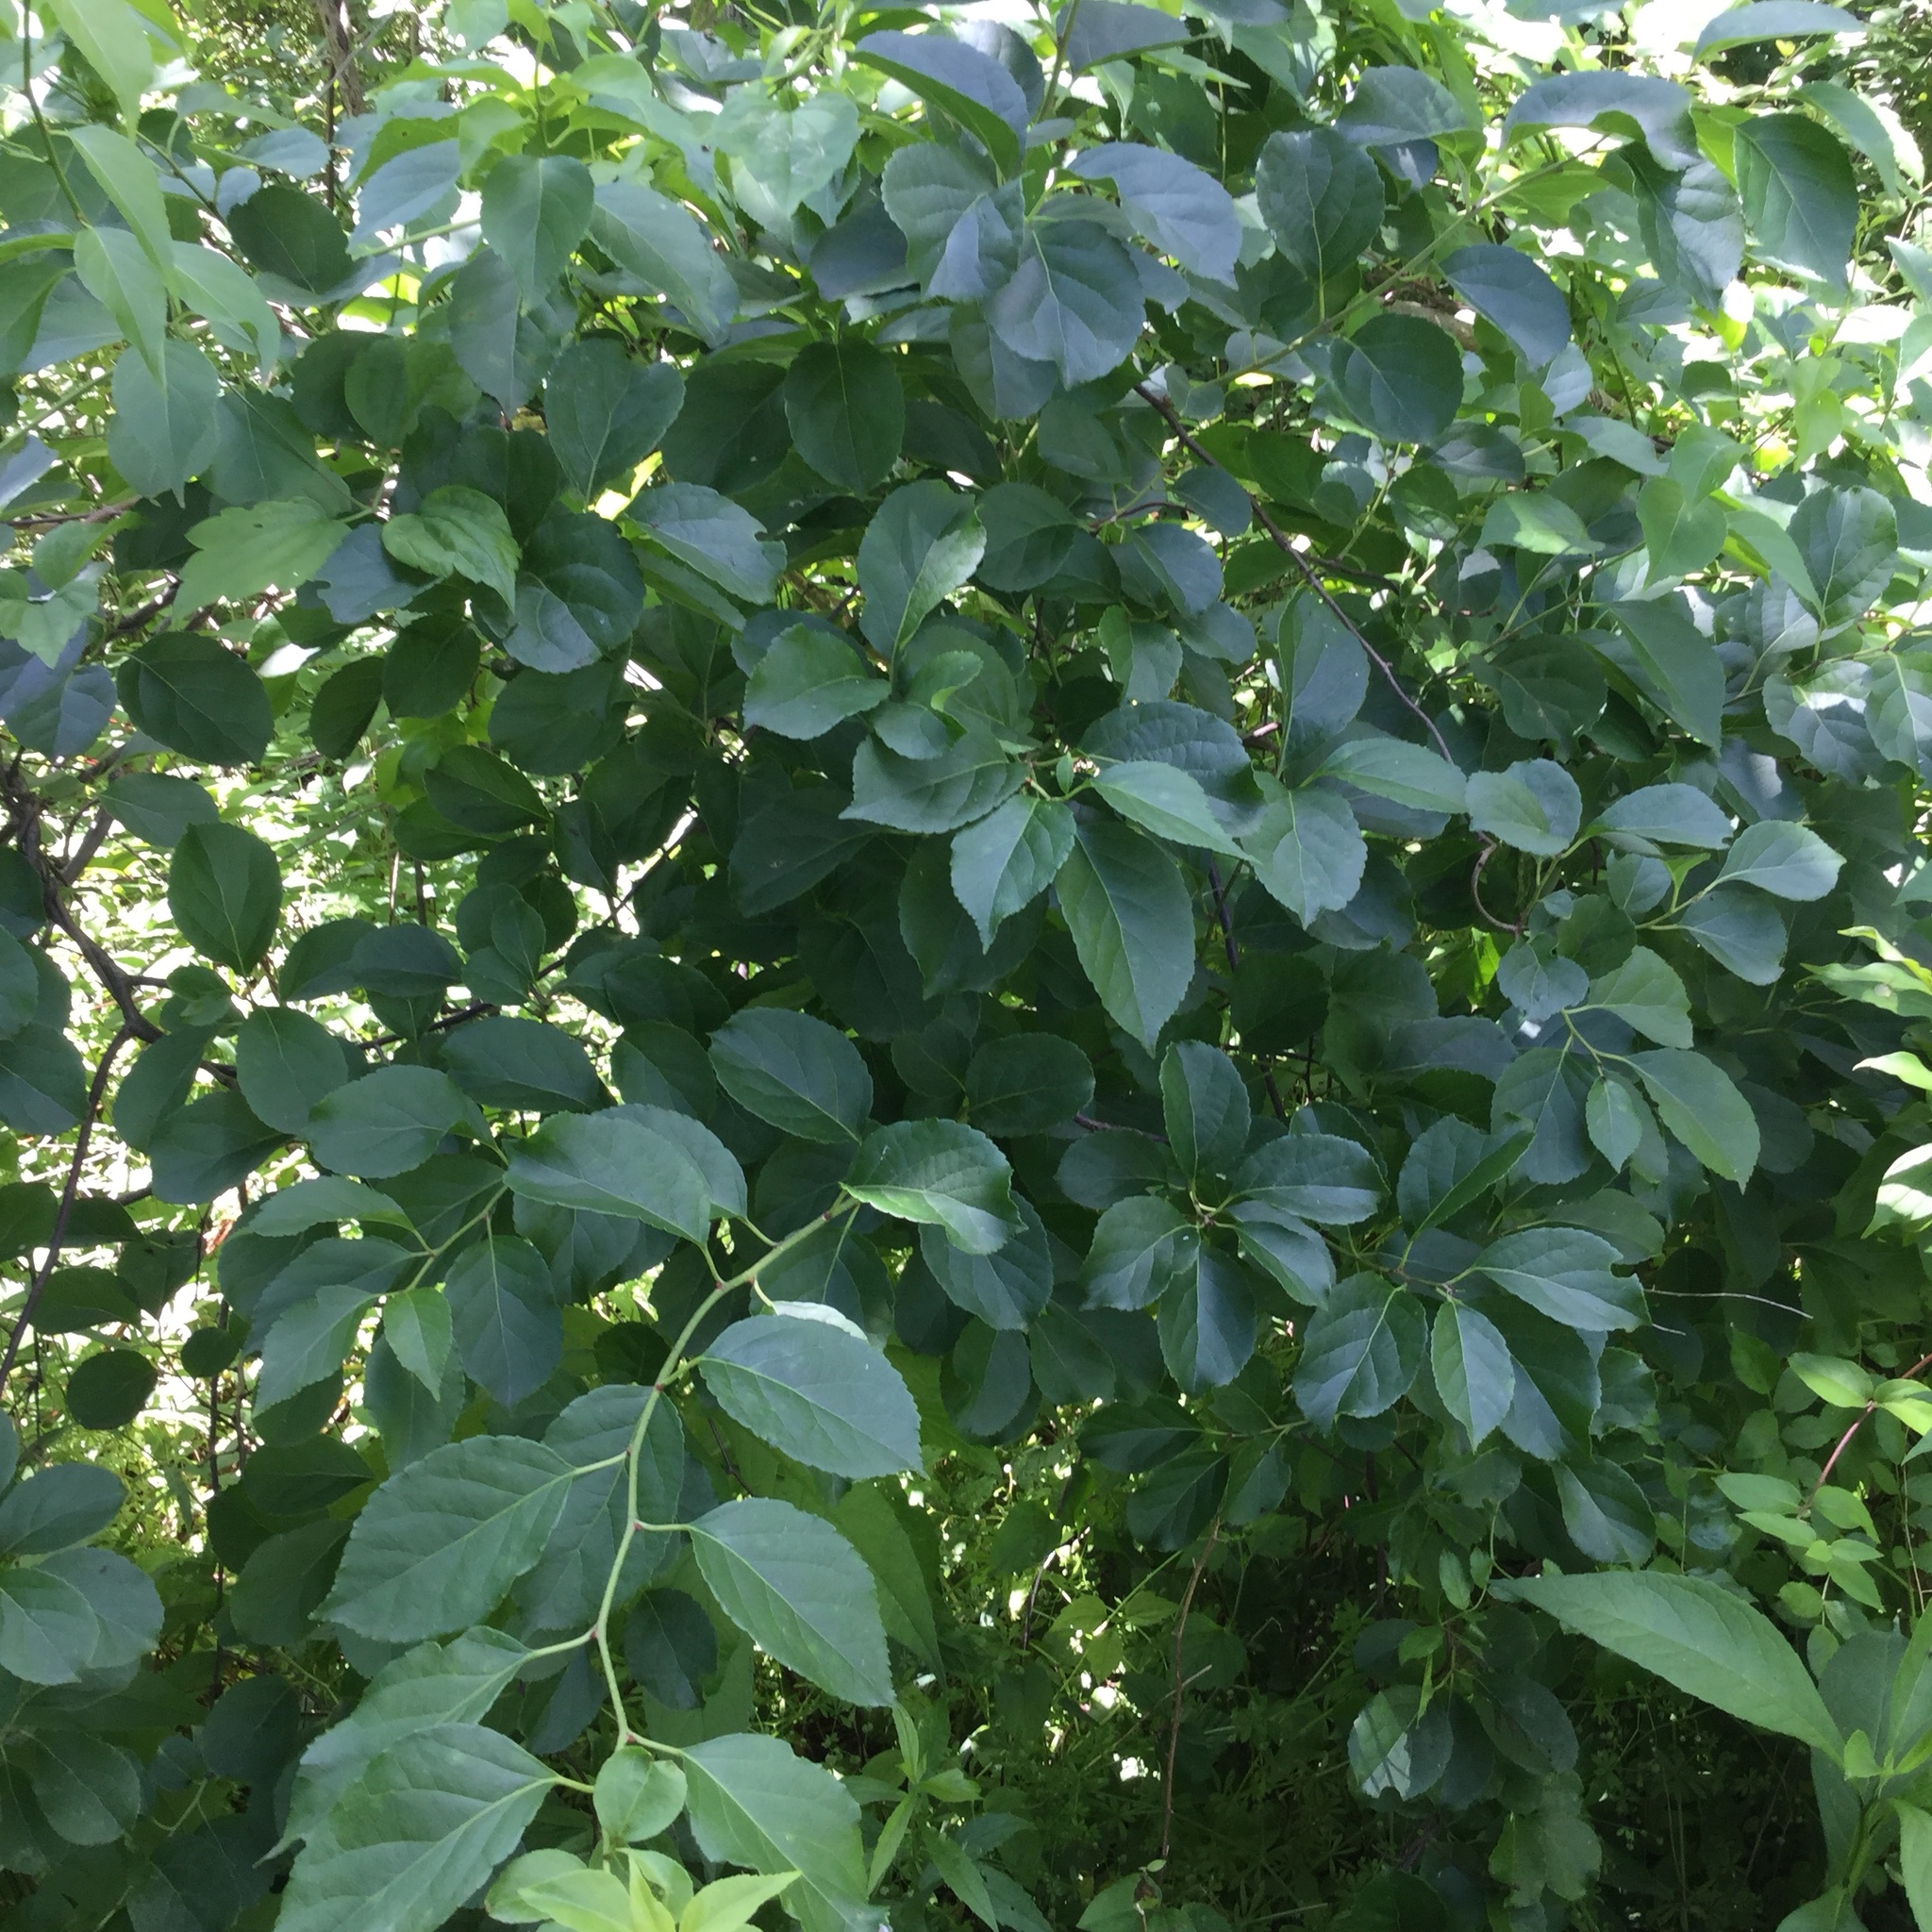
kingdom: Plantae
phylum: Tracheophyta
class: Magnoliopsida
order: Celastrales
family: Celastraceae
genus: Celastrus
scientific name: Celastrus orbiculatus
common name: Oriental bittersweet
